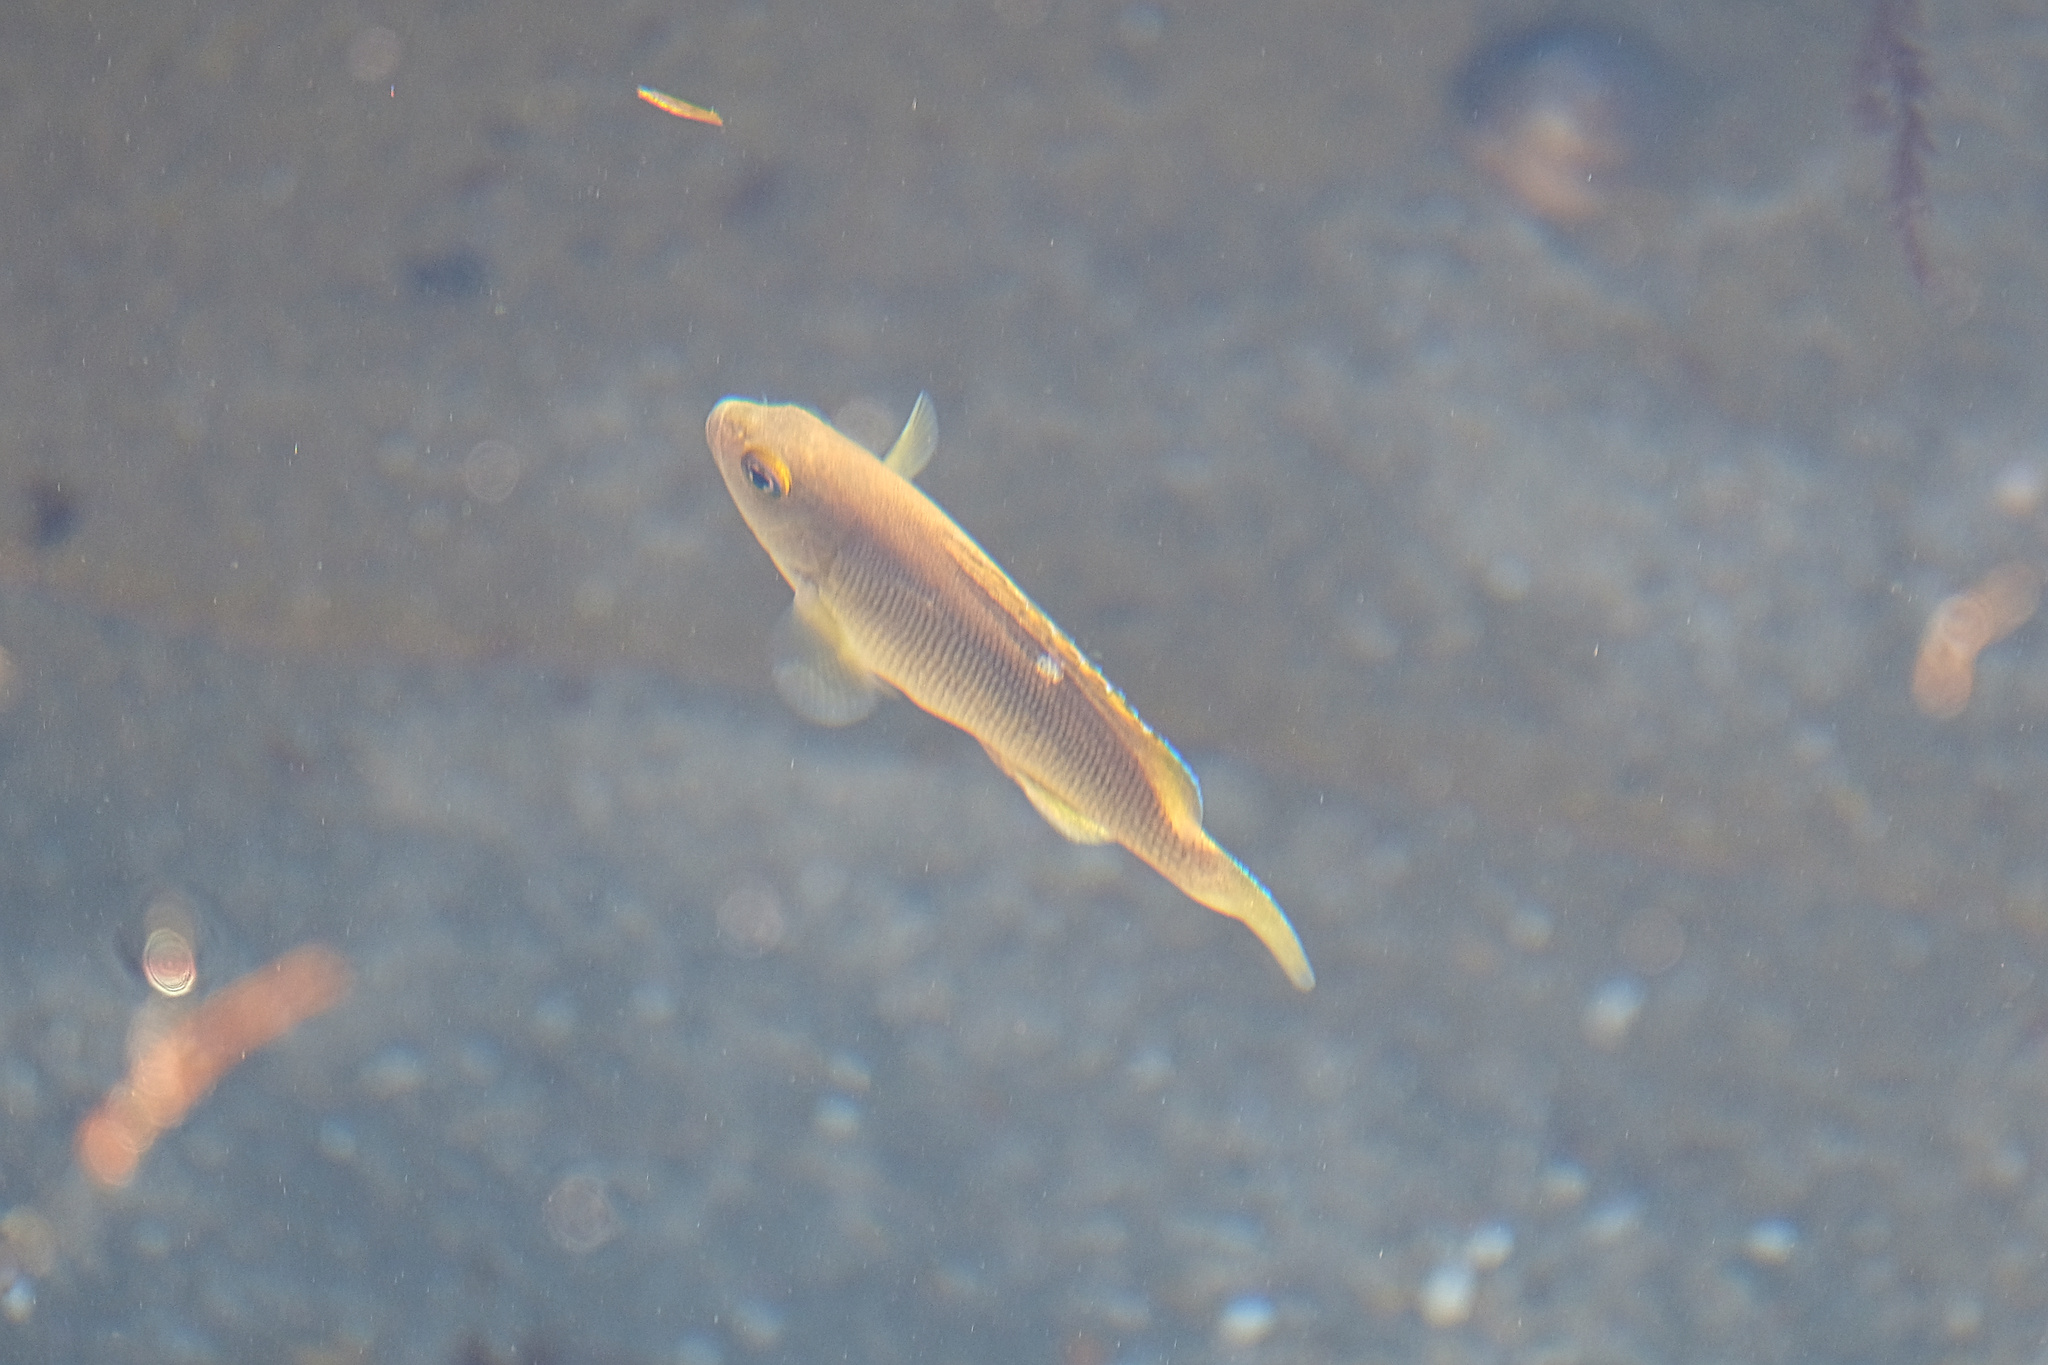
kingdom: Animalia
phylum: Chordata
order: Perciformes
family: Kyphosidae
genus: Girella
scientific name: Girella nigricans
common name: Opaleye
